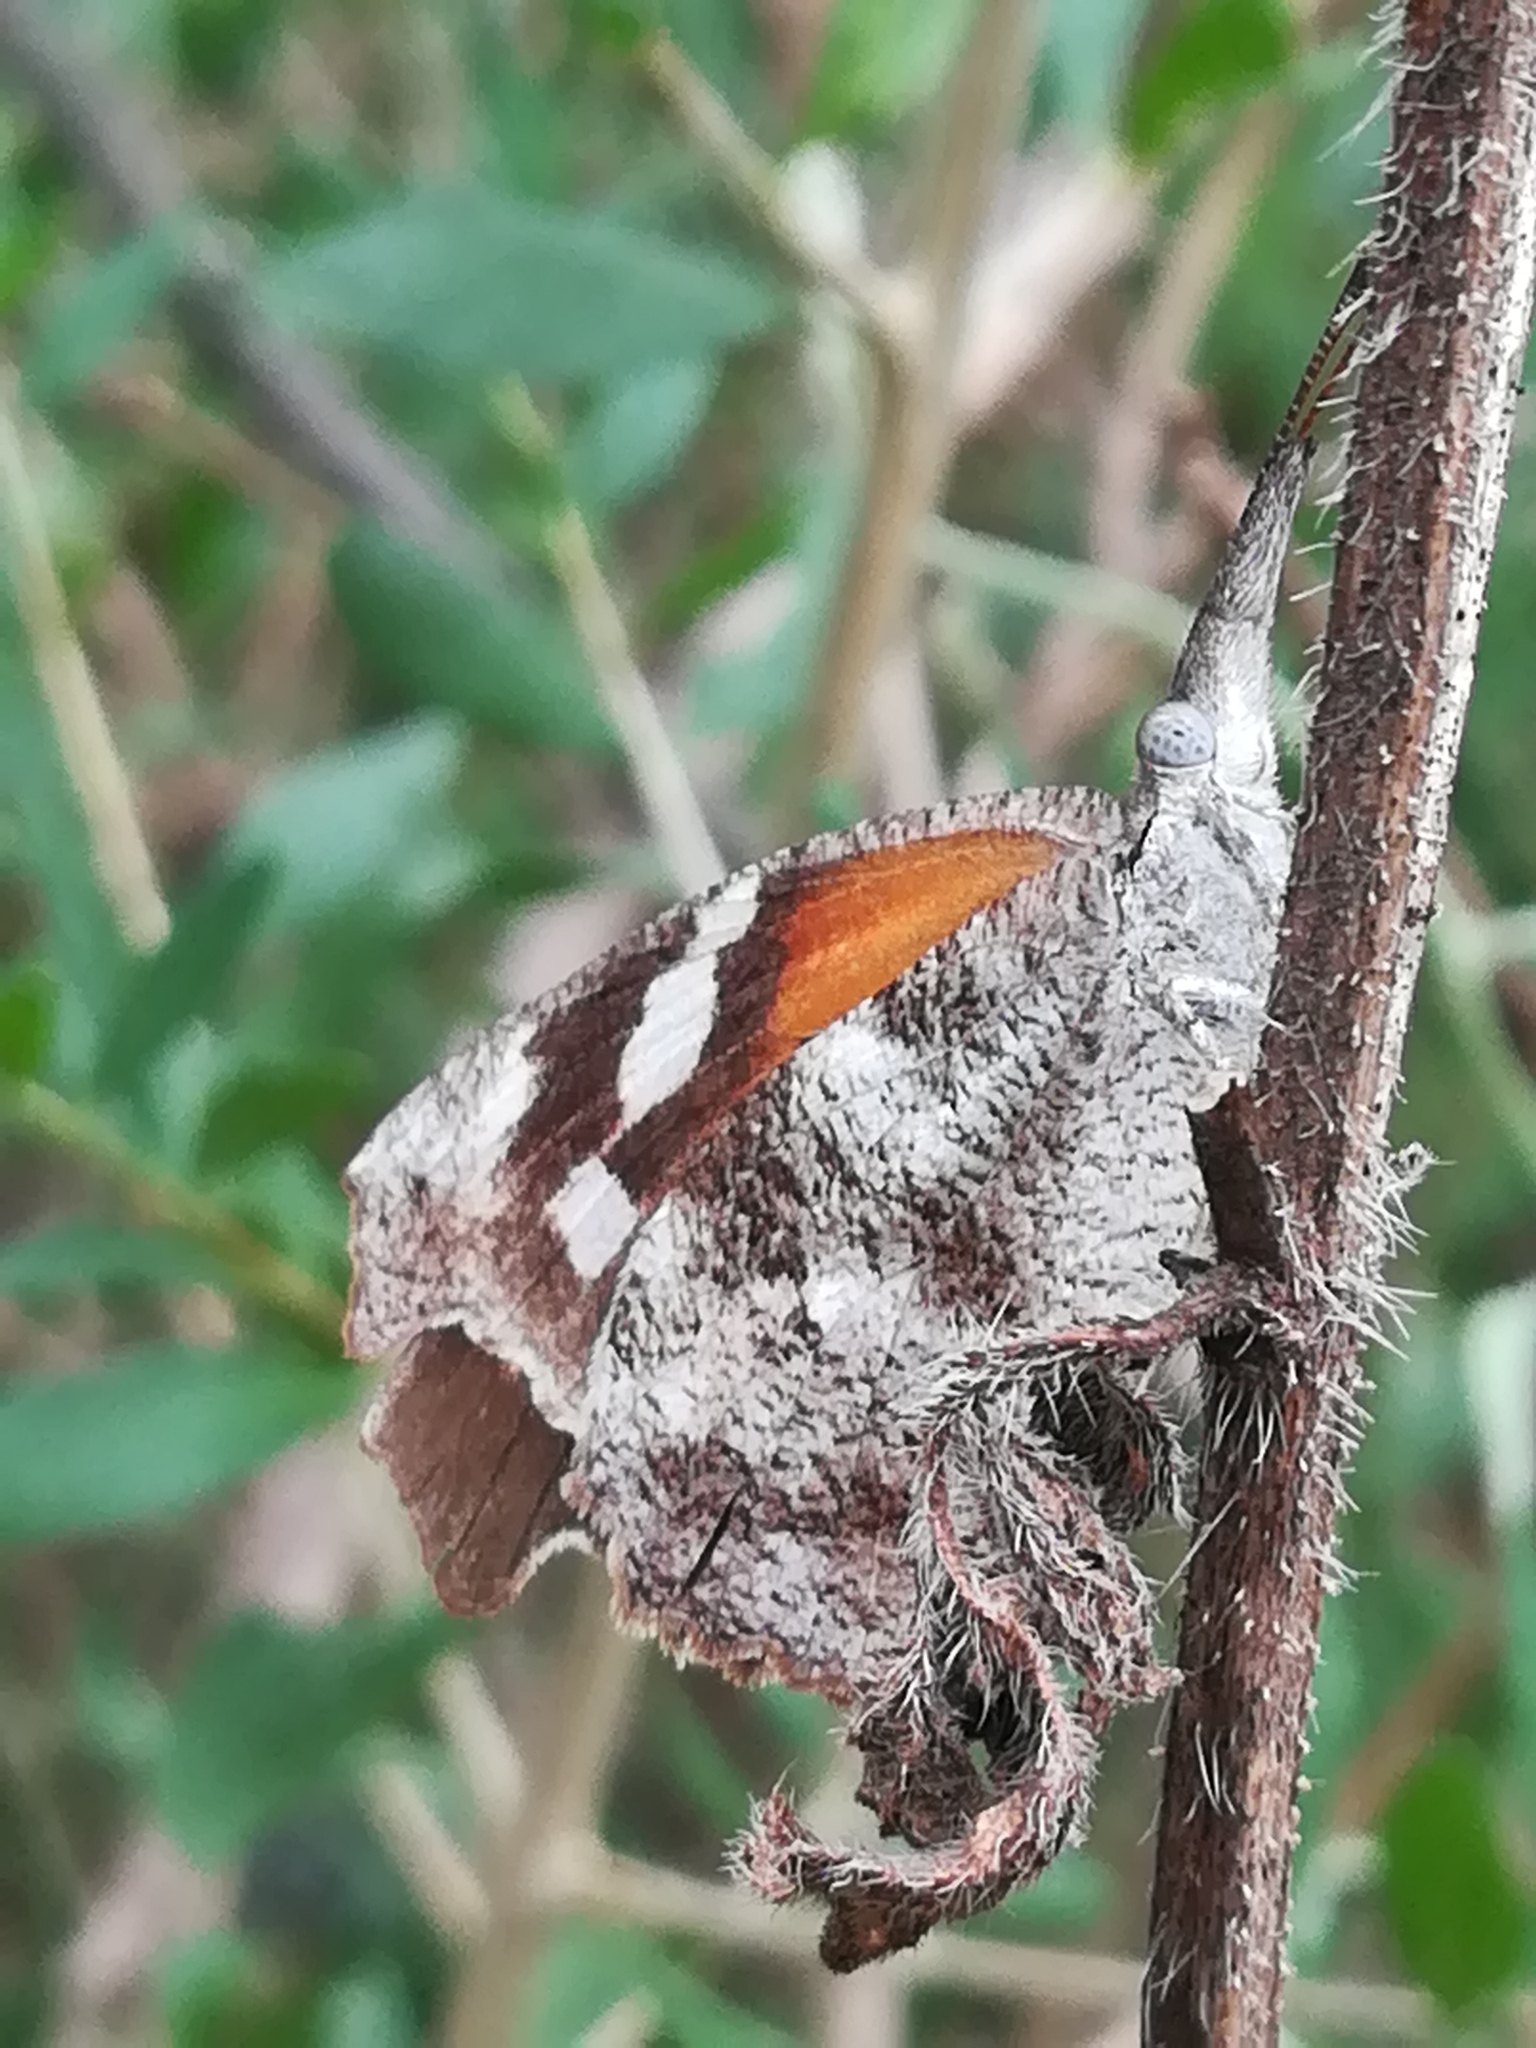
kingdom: Animalia
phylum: Arthropoda
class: Insecta
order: Lepidoptera
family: Nymphalidae
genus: Libytheana
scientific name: Libytheana carinenta
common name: American snout
